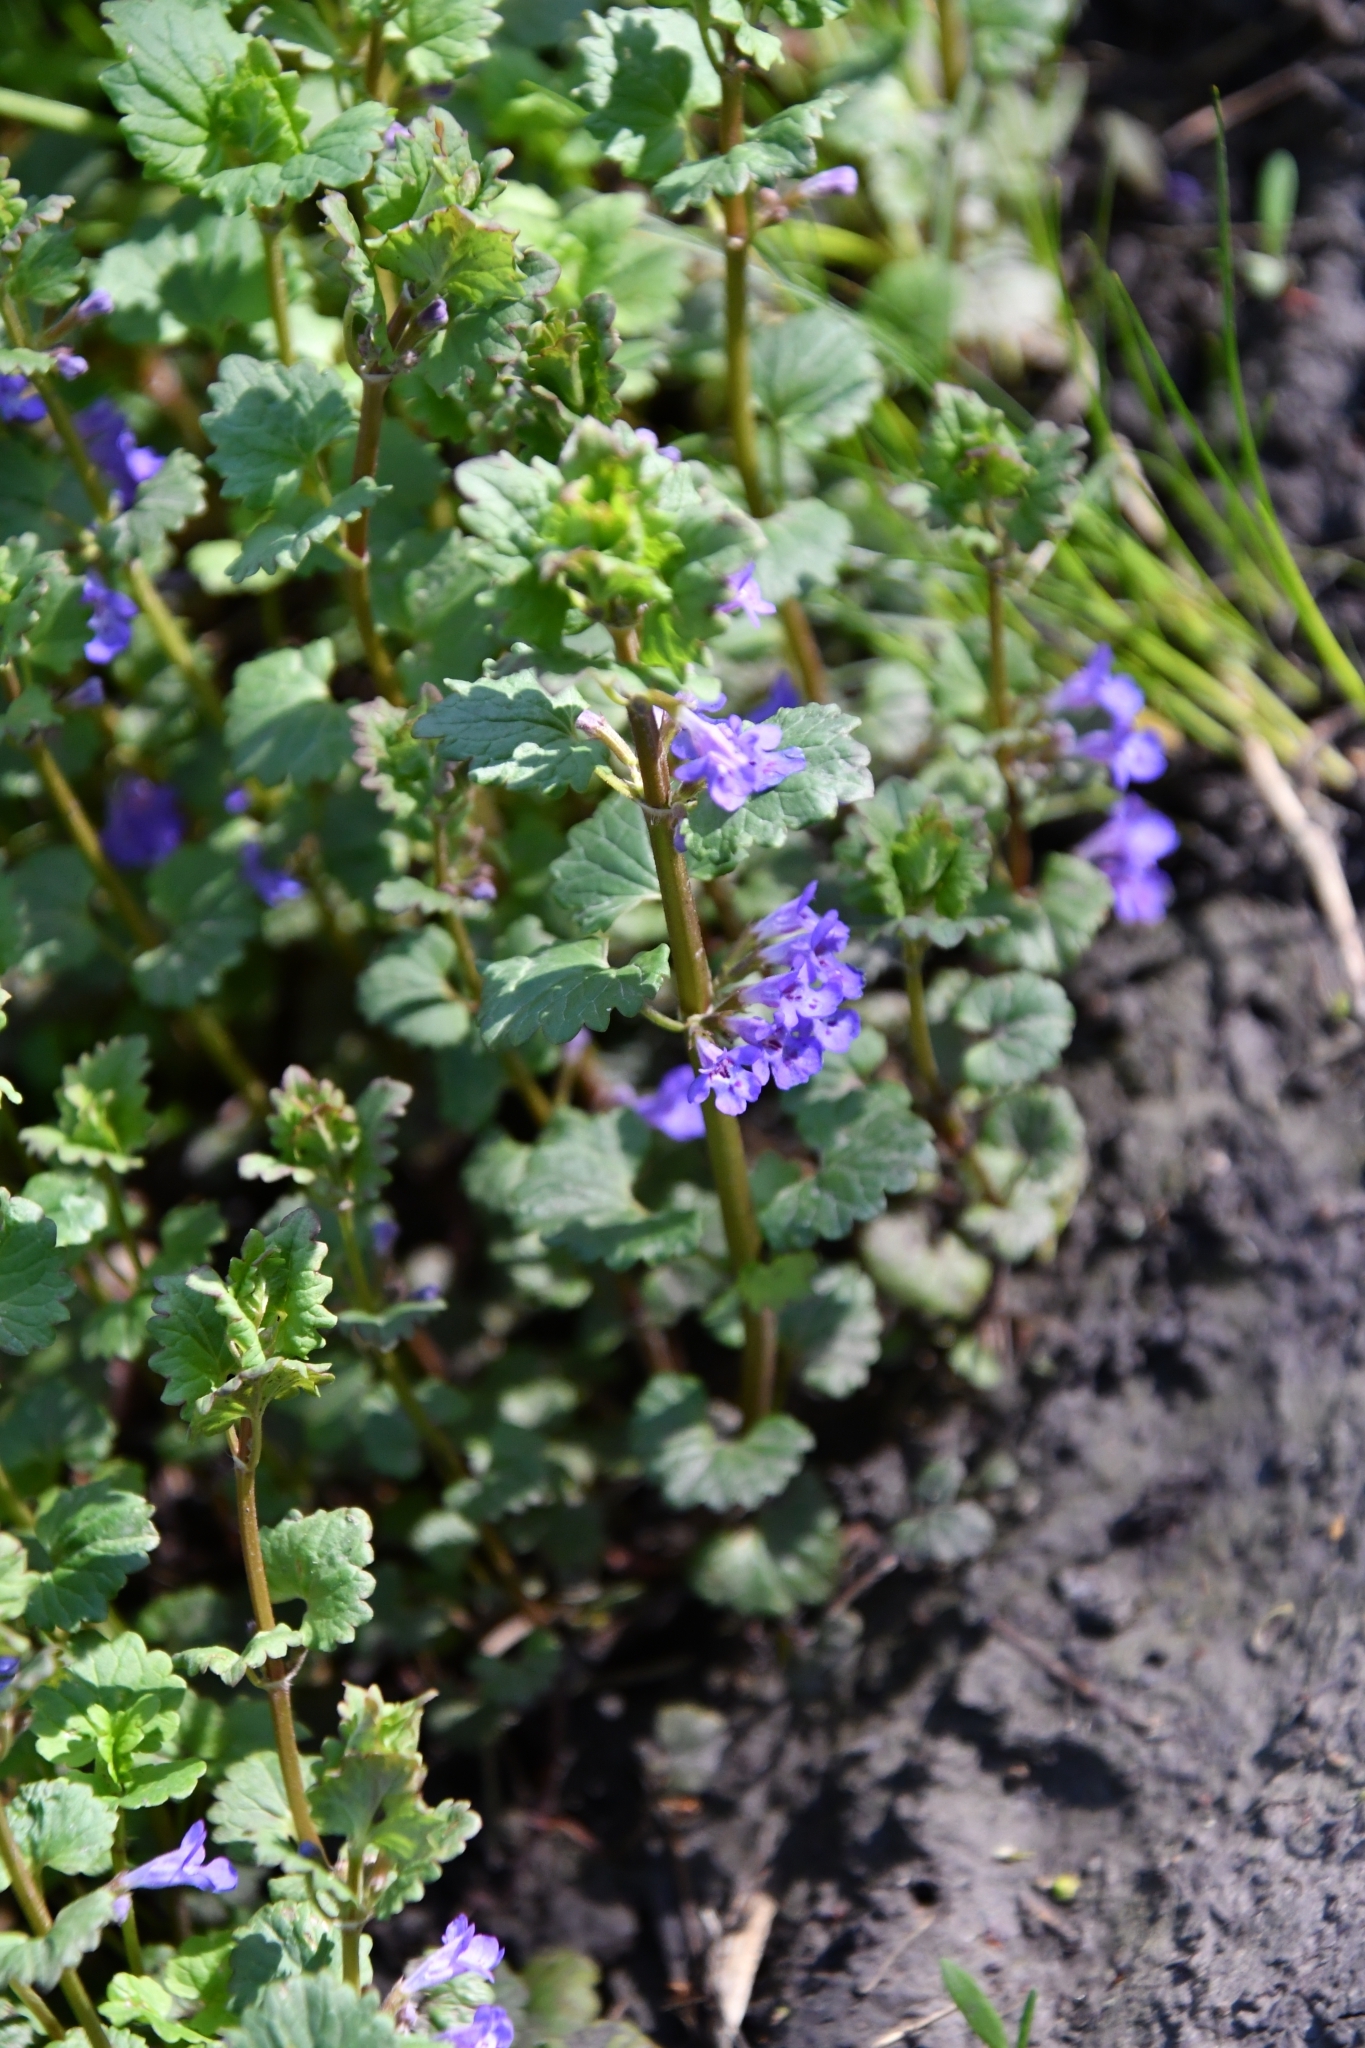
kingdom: Plantae
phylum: Tracheophyta
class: Magnoliopsida
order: Lamiales
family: Lamiaceae
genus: Glechoma
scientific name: Glechoma hederacea
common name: Ground ivy
